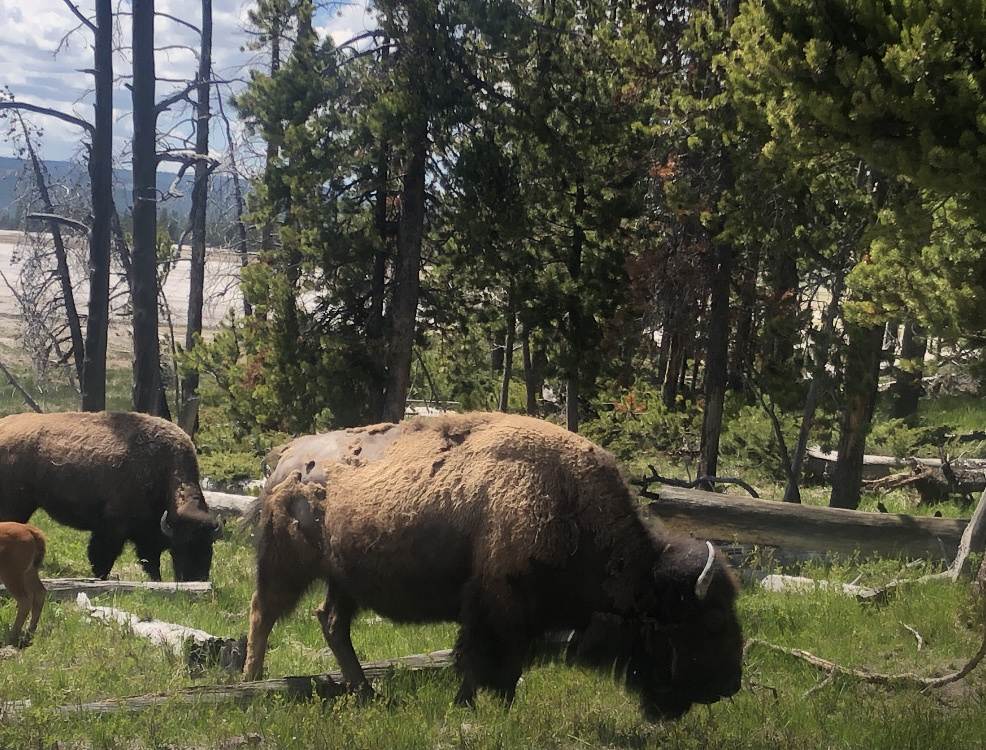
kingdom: Animalia
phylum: Chordata
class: Mammalia
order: Artiodactyla
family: Bovidae
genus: Bison
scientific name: Bison bison
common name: American bison
